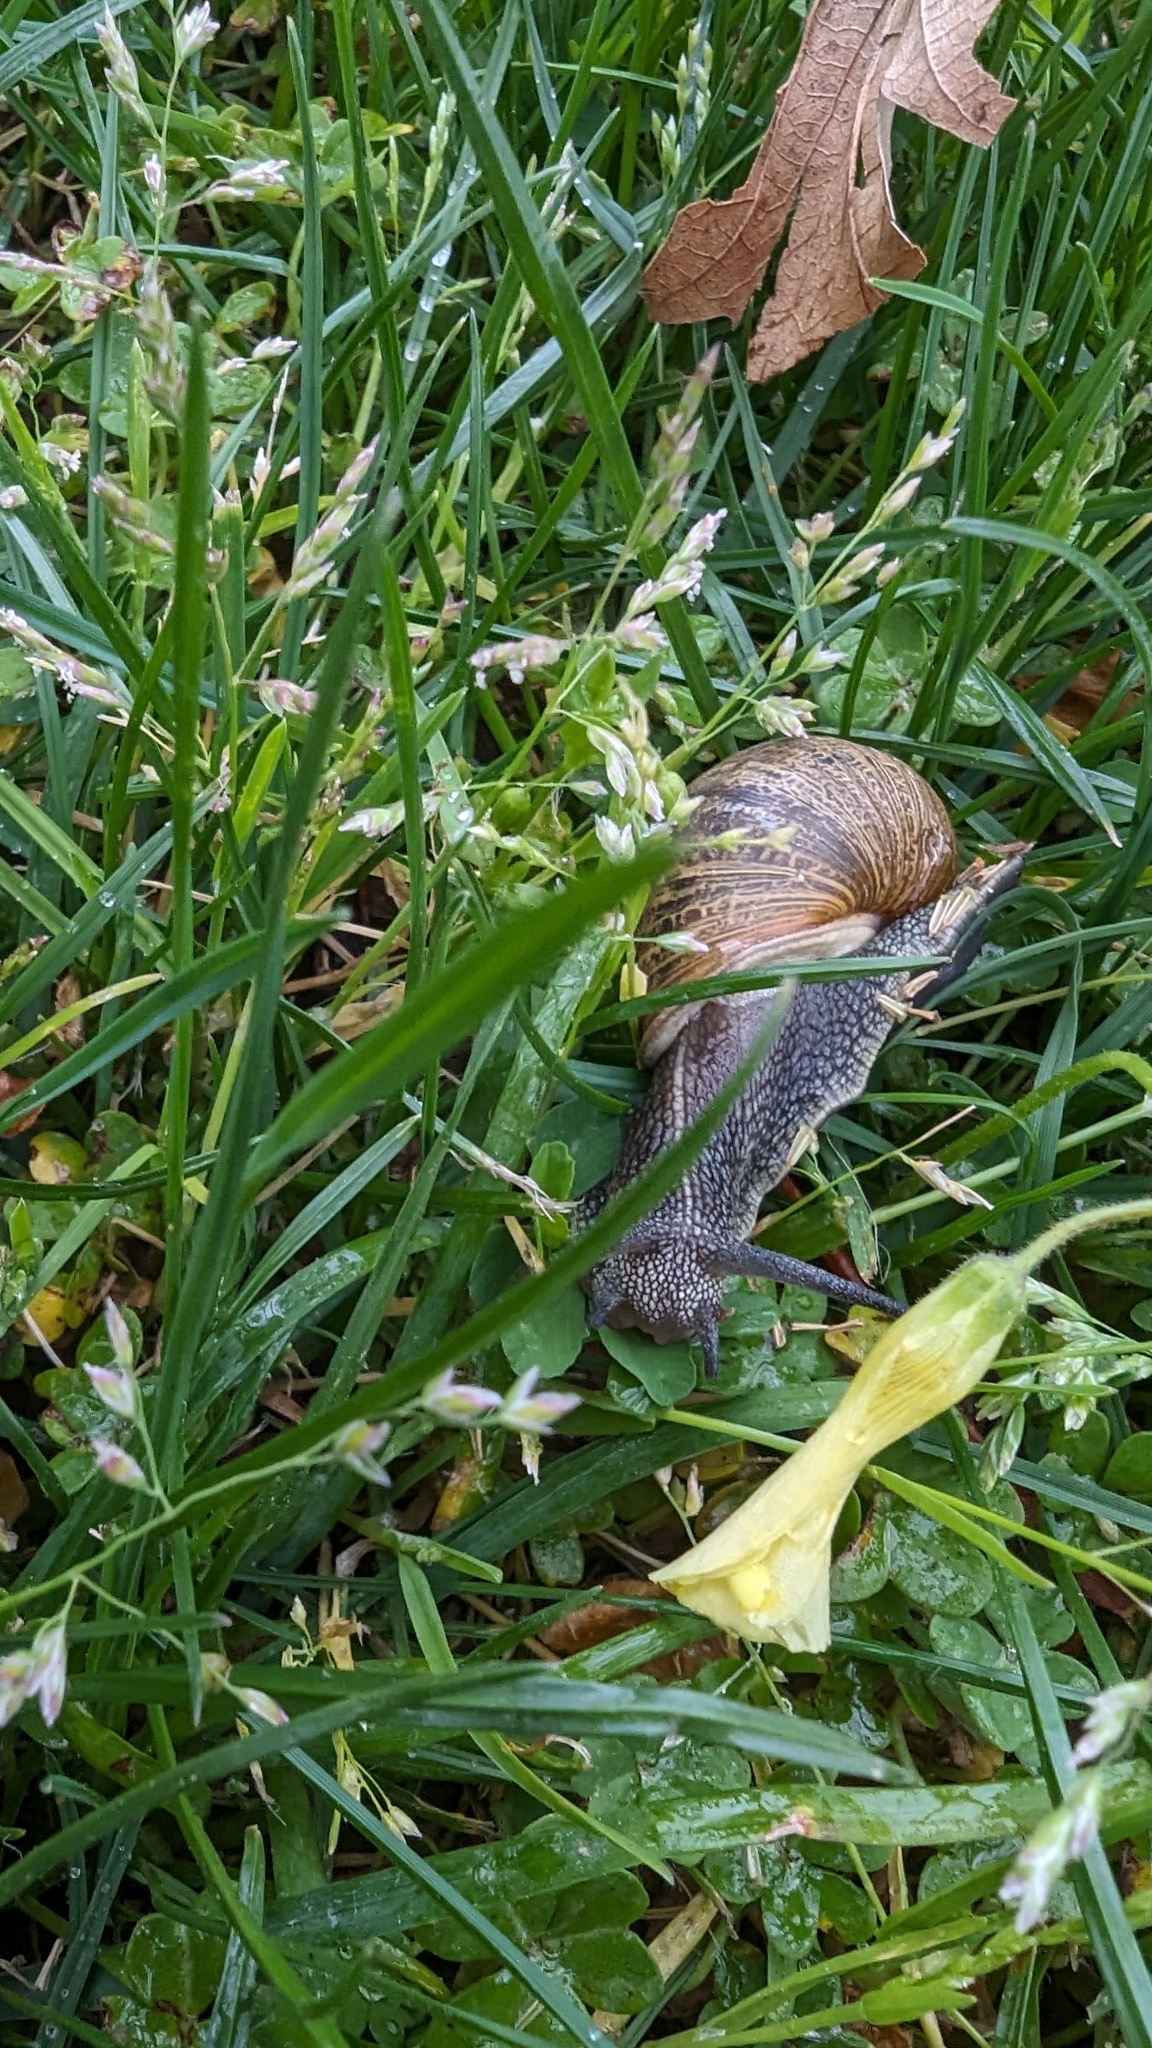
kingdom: Animalia
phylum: Mollusca
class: Gastropoda
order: Stylommatophora
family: Helicidae
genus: Cornu
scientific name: Cornu aspersum
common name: Brown garden snail
